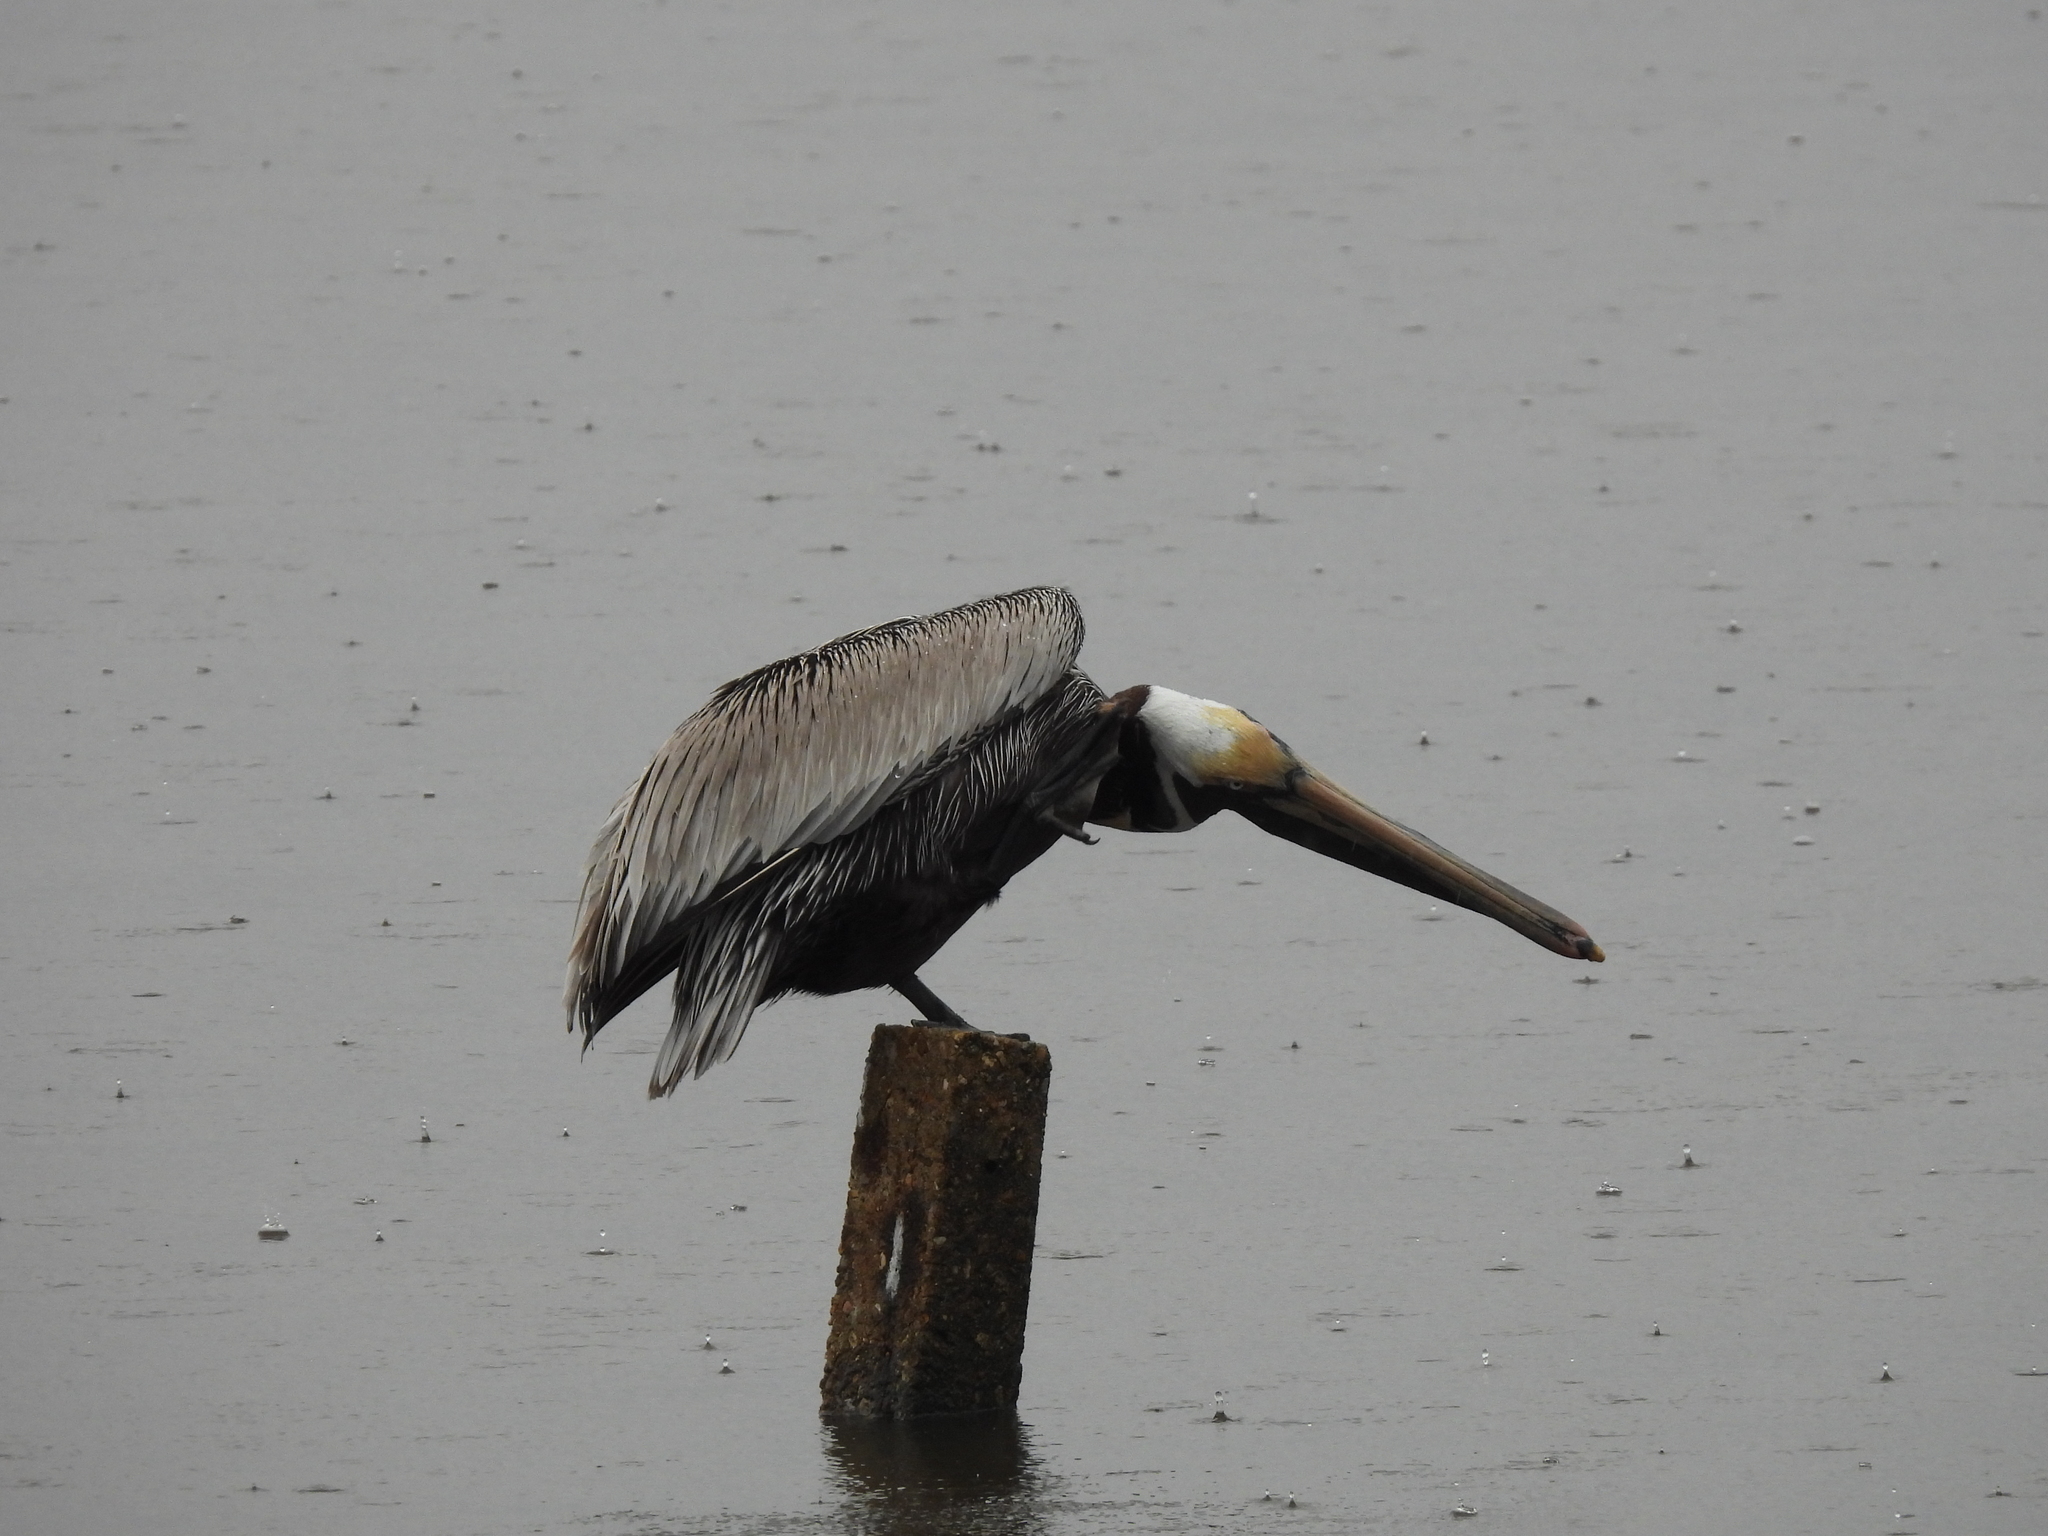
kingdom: Animalia
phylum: Chordata
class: Aves
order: Pelecaniformes
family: Pelecanidae
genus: Pelecanus
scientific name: Pelecanus occidentalis
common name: Brown pelican
